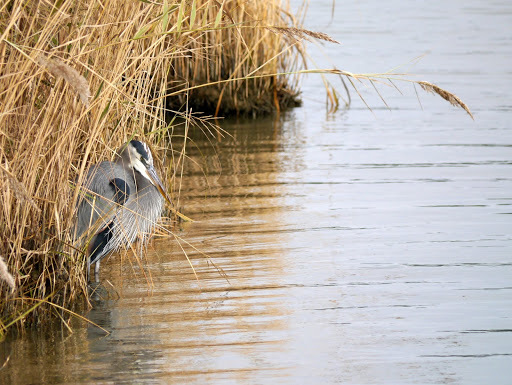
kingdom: Animalia
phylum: Chordata
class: Aves
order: Pelecaniformes
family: Ardeidae
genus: Ardea
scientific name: Ardea herodias
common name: Great blue heron
